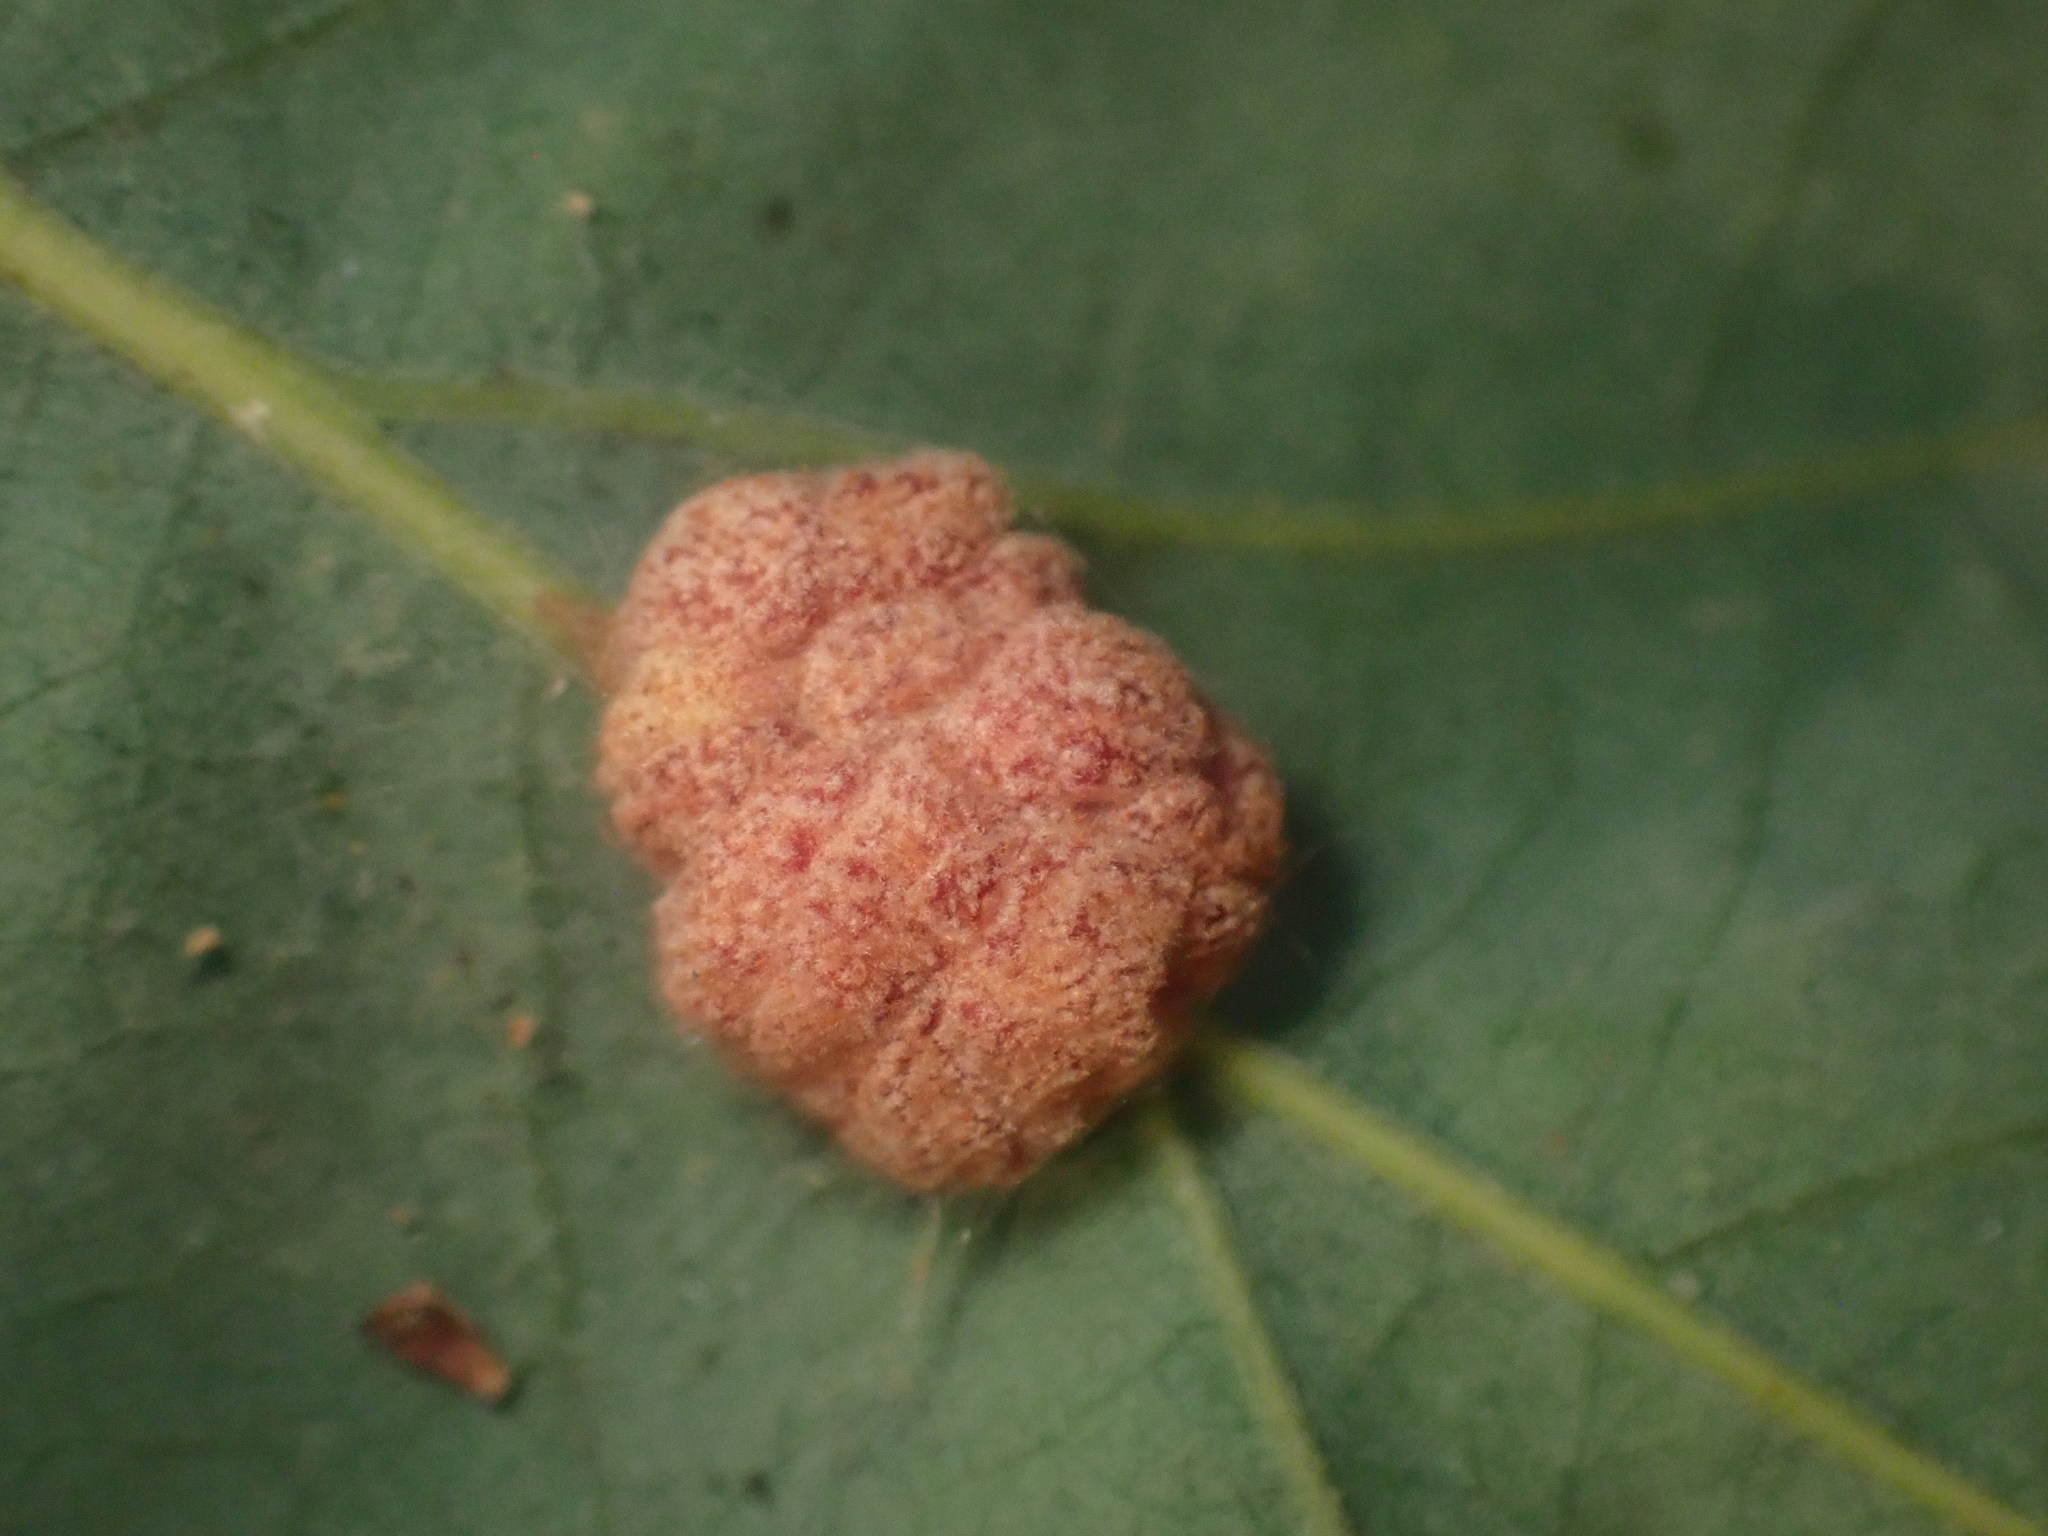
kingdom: Animalia
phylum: Arthropoda
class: Insecta
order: Hymenoptera
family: Cynipidae
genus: Andricus
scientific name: Andricus
